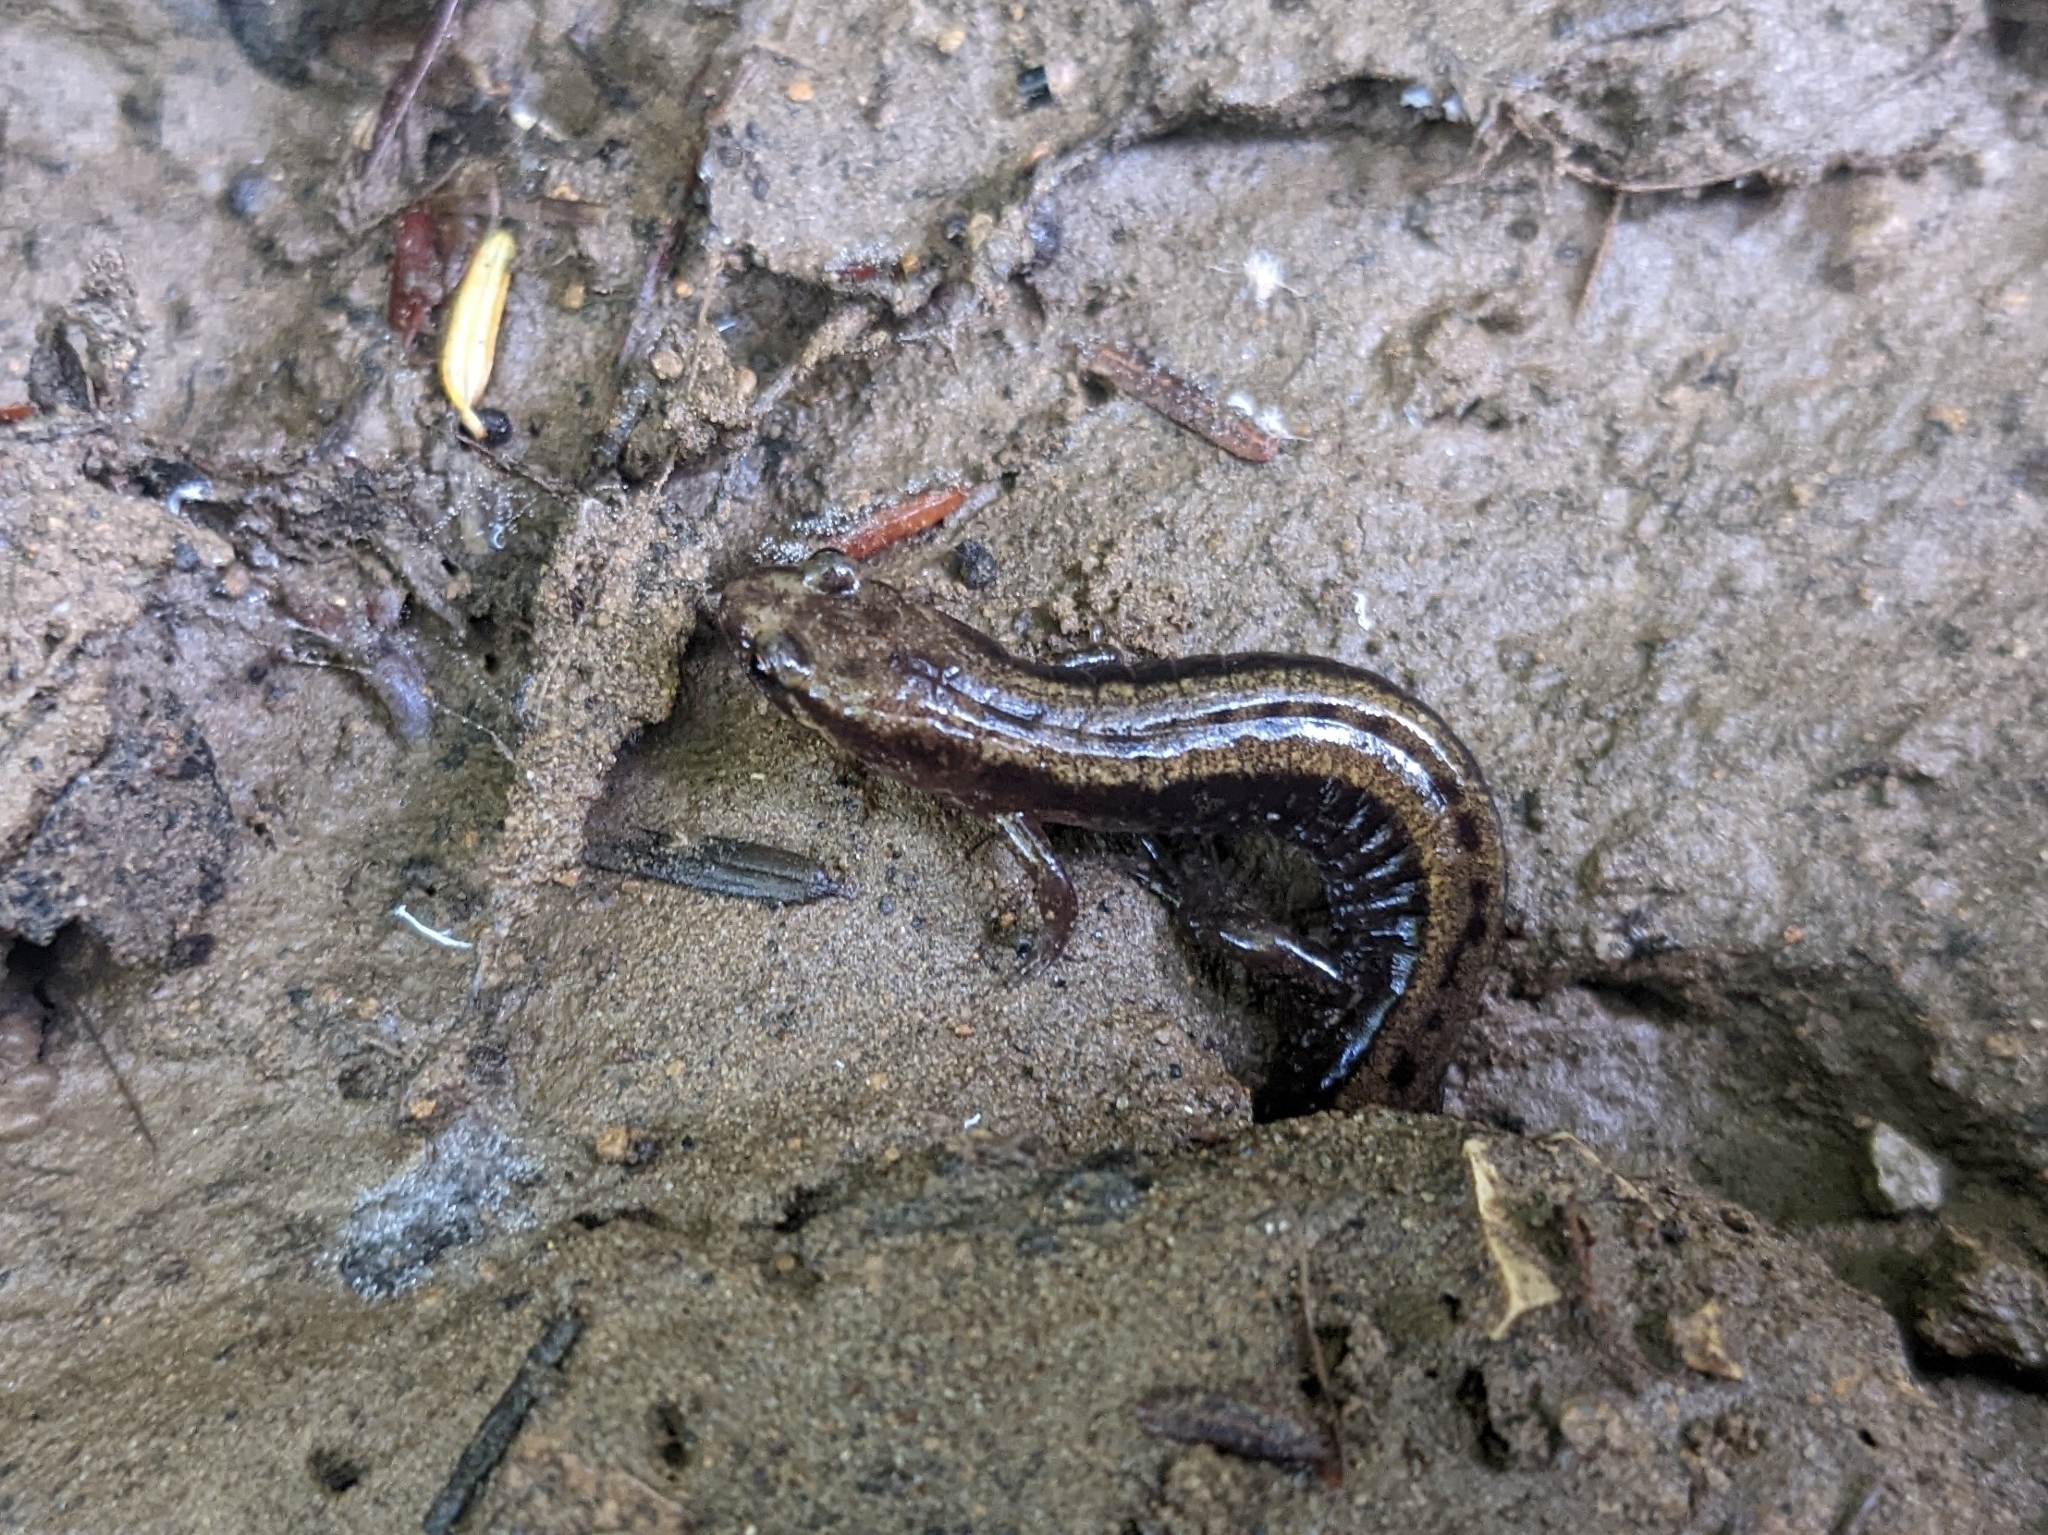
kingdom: Animalia
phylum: Chordata
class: Amphibia
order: Caudata
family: Plethodontidae
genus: Desmognathus
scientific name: Desmognathus ochrophaeus
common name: Allegheny mountain dusky salamander
